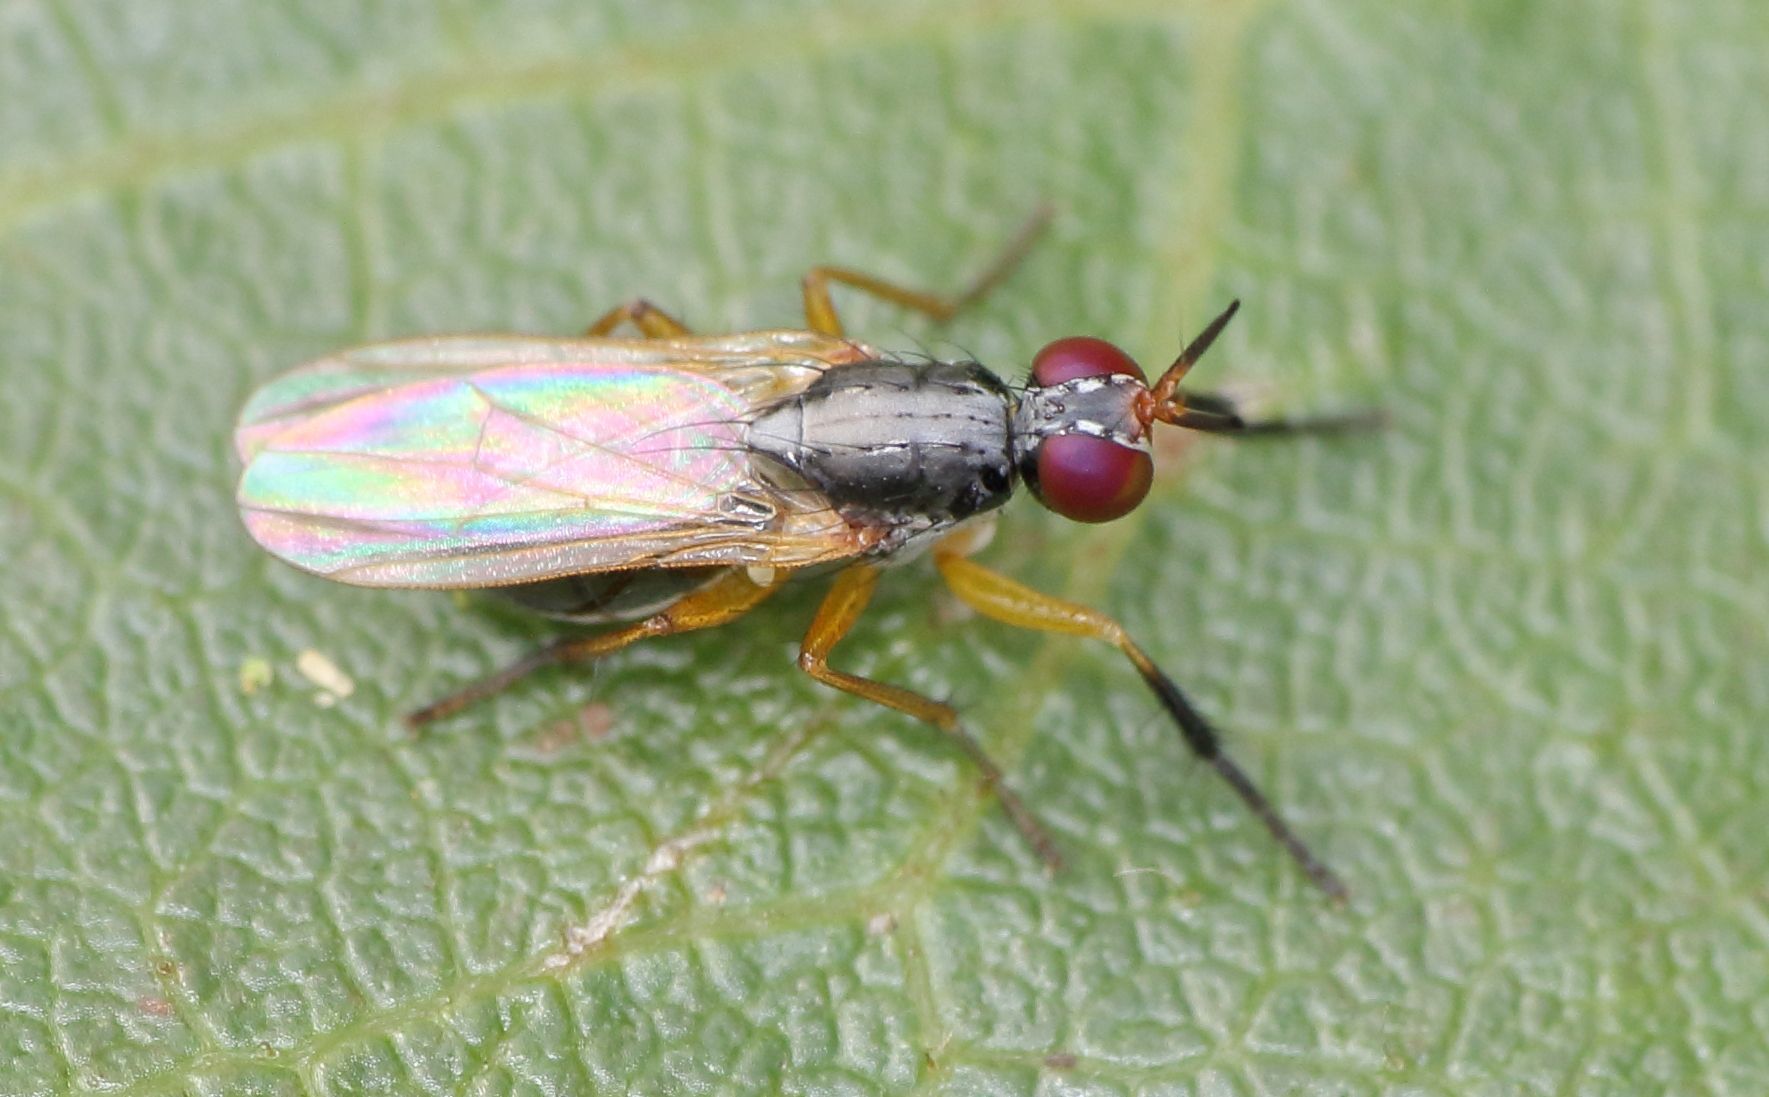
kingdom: Animalia
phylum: Arthropoda
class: Insecta
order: Diptera
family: Muscidae
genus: Anaphalantus
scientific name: Anaphalantus longicornis
